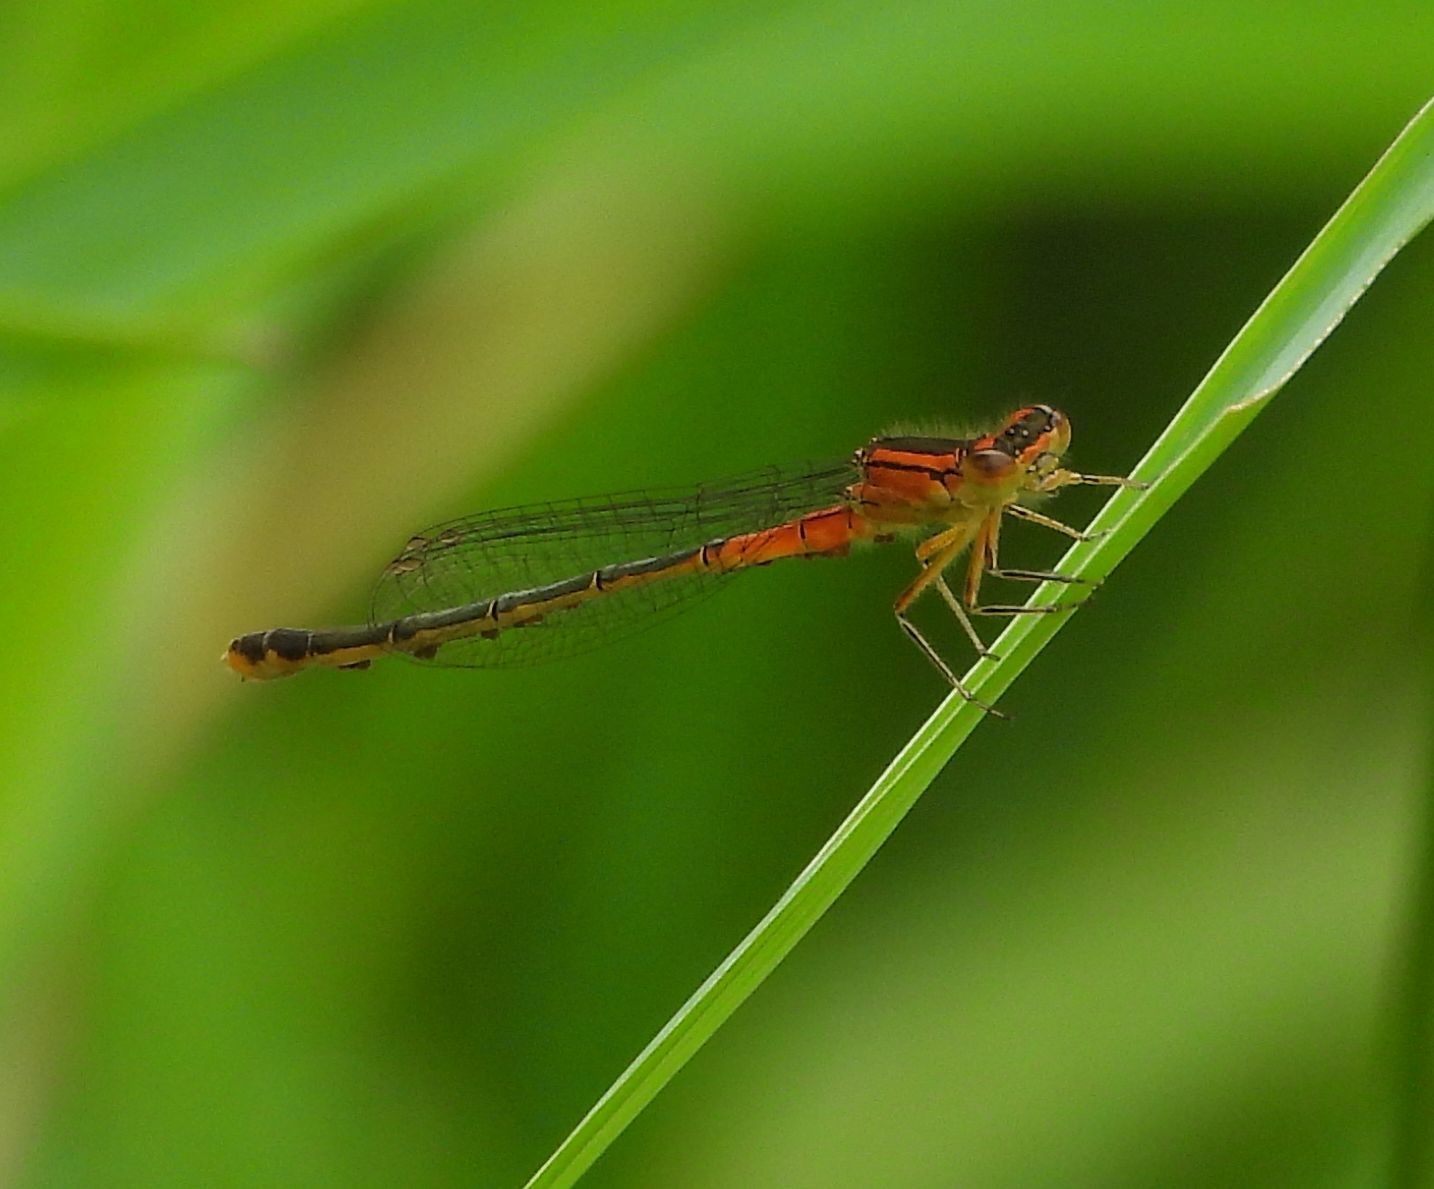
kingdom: Animalia
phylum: Arthropoda
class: Insecta
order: Odonata
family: Coenagrionidae
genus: Ischnura
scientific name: Ischnura verticalis
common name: Eastern forktail
